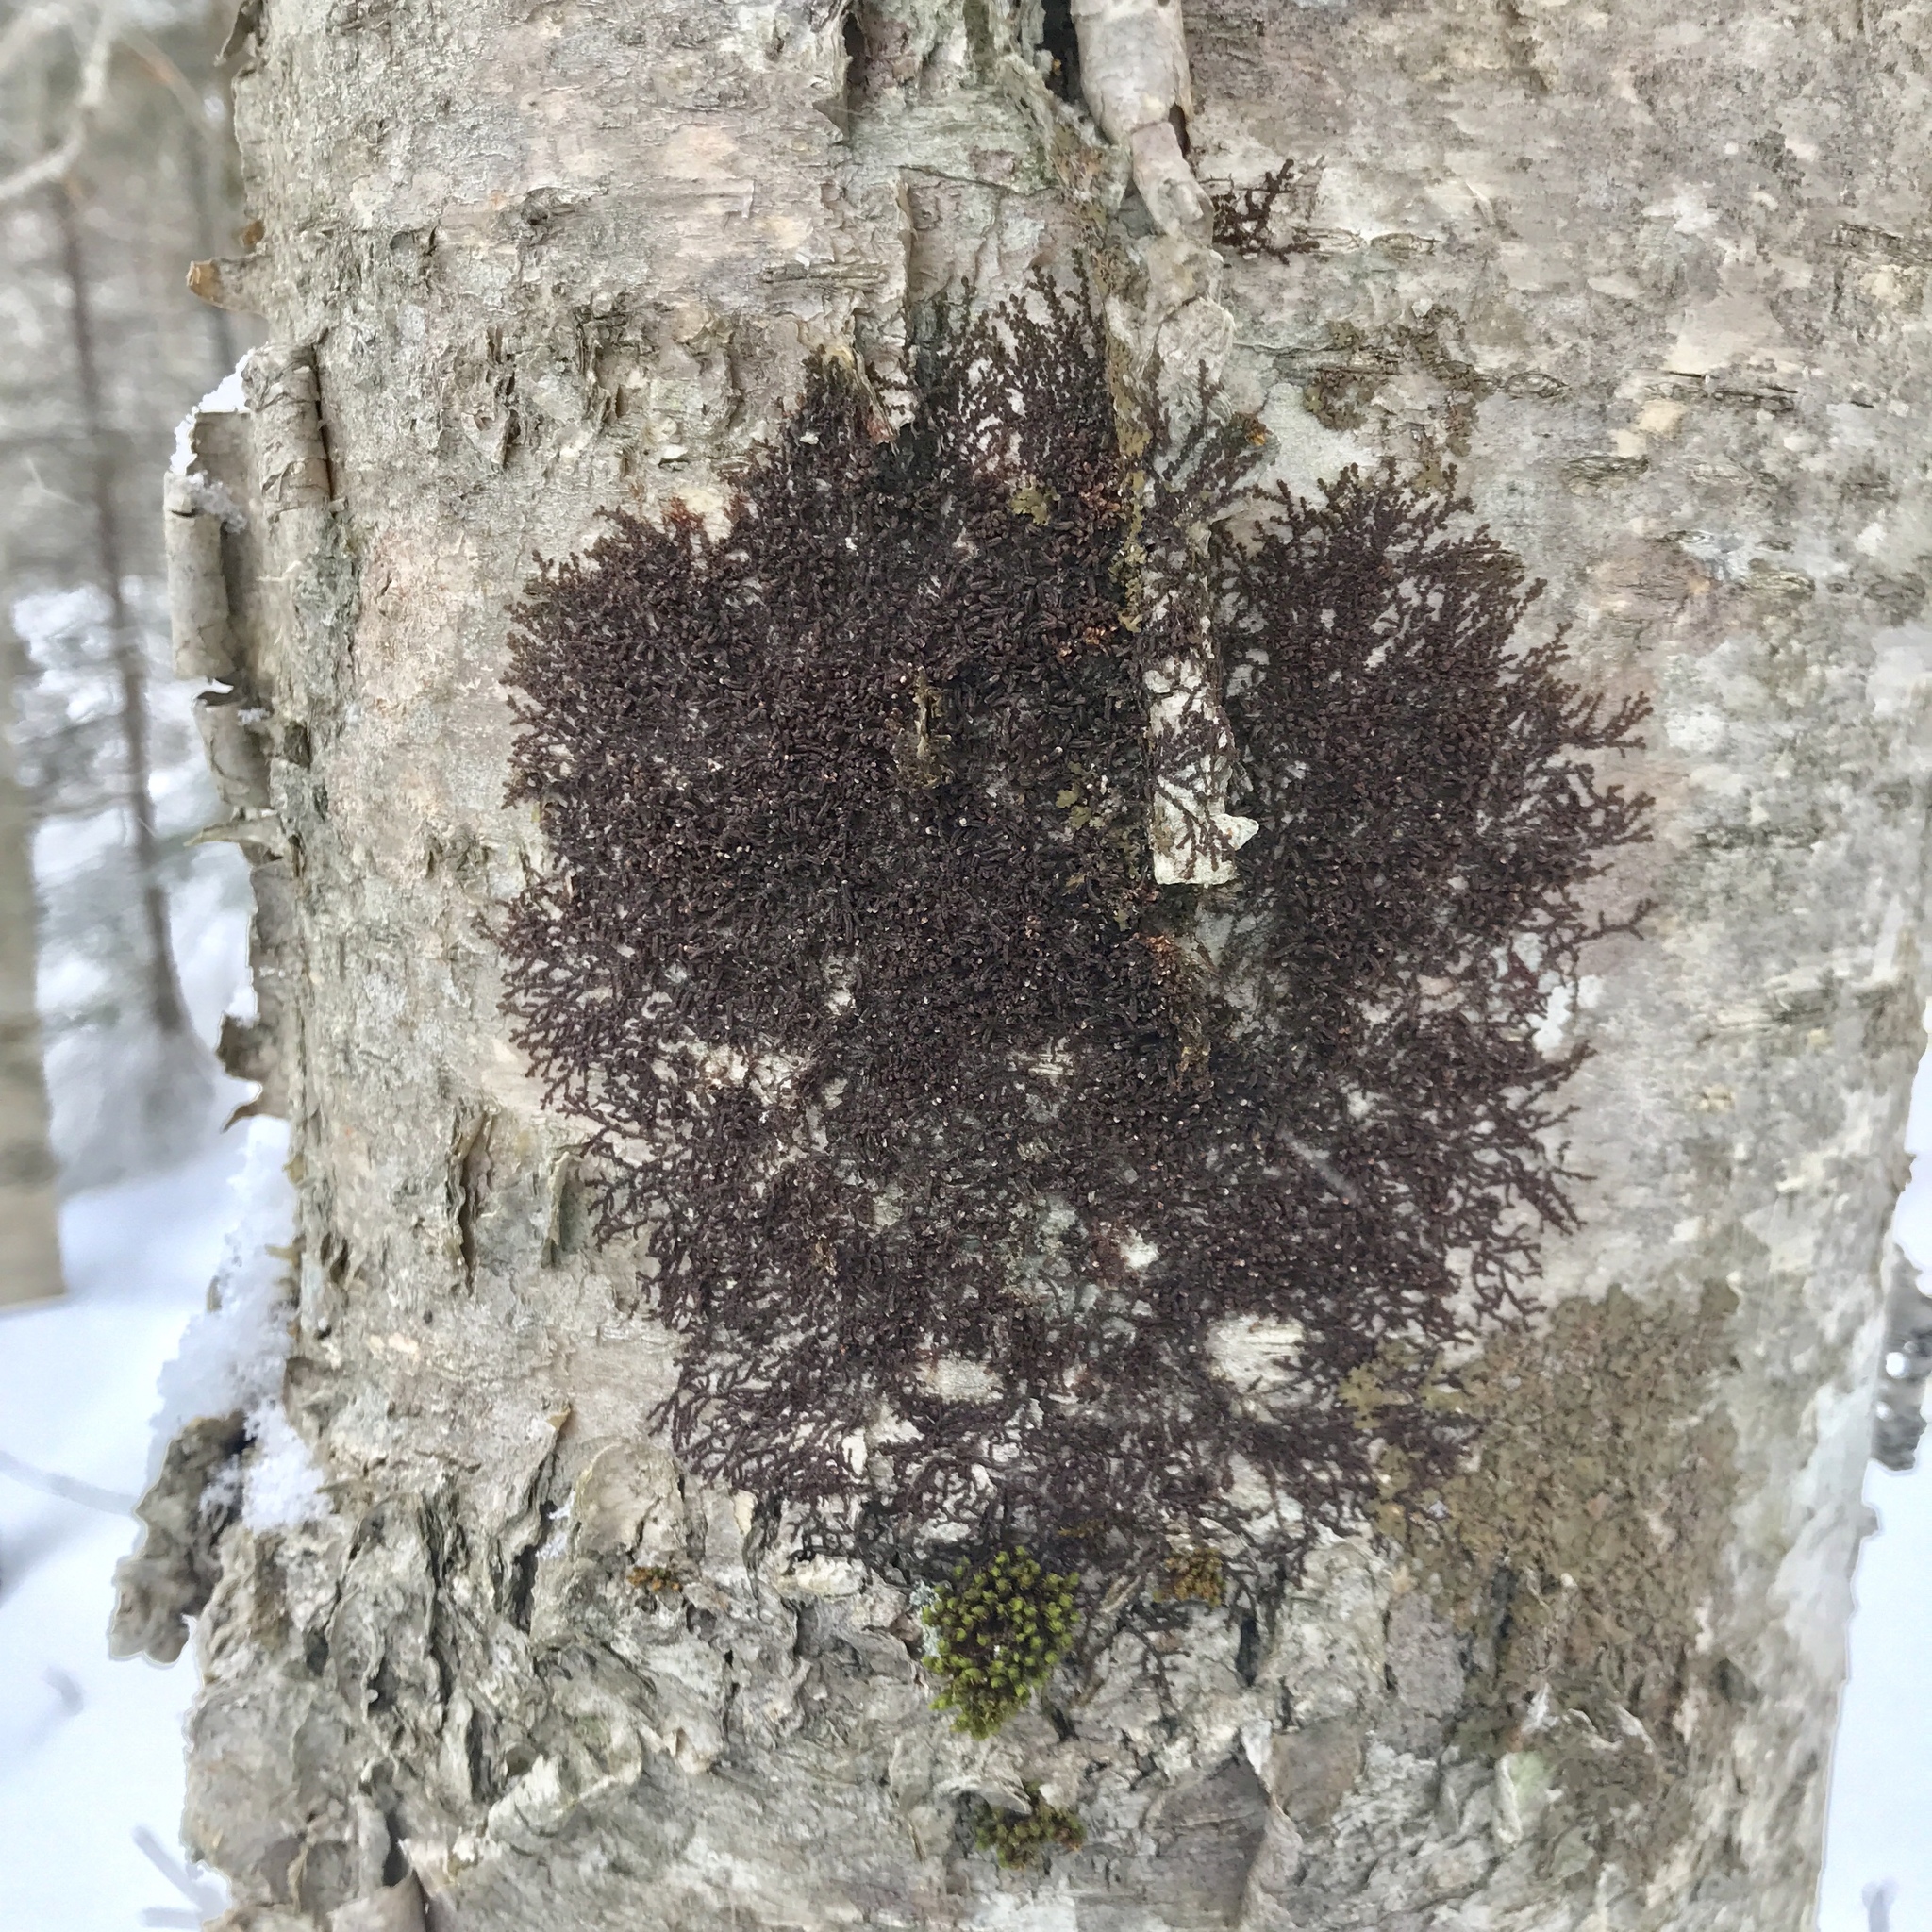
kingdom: Plantae
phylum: Marchantiophyta
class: Jungermanniopsida
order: Porellales
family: Frullaniaceae
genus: Frullania
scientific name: Frullania eboracensis
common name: New york scalewort
